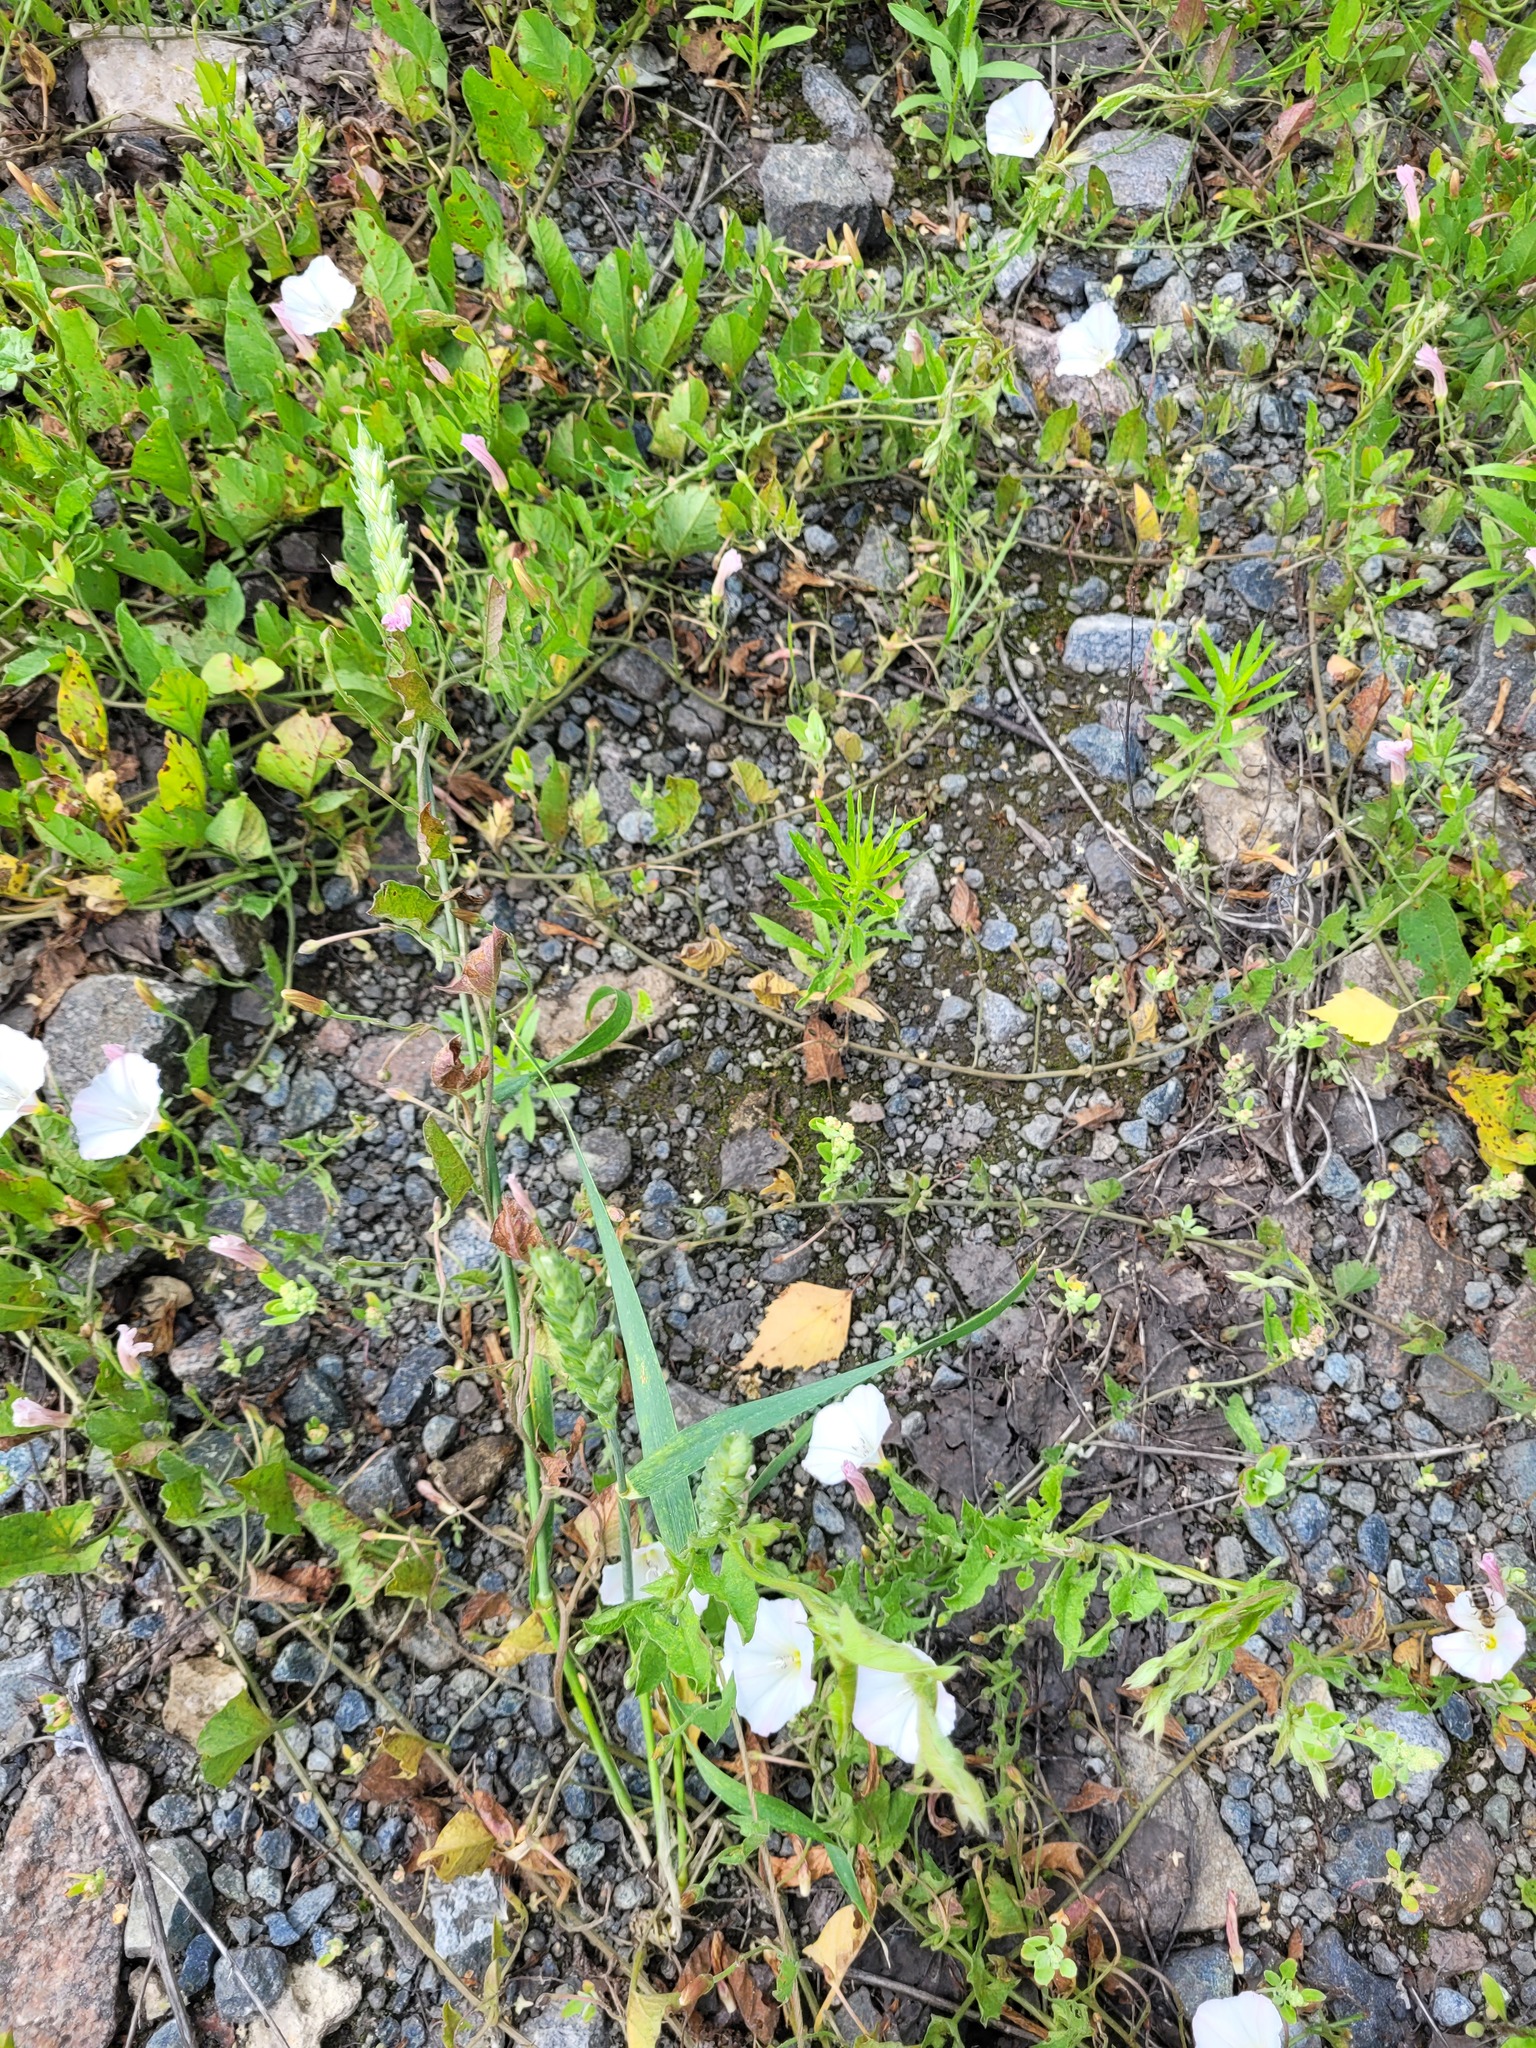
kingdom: Plantae
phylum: Tracheophyta
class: Liliopsida
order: Poales
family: Poaceae
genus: Triticum
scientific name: Triticum aestivum
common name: Common wheat
